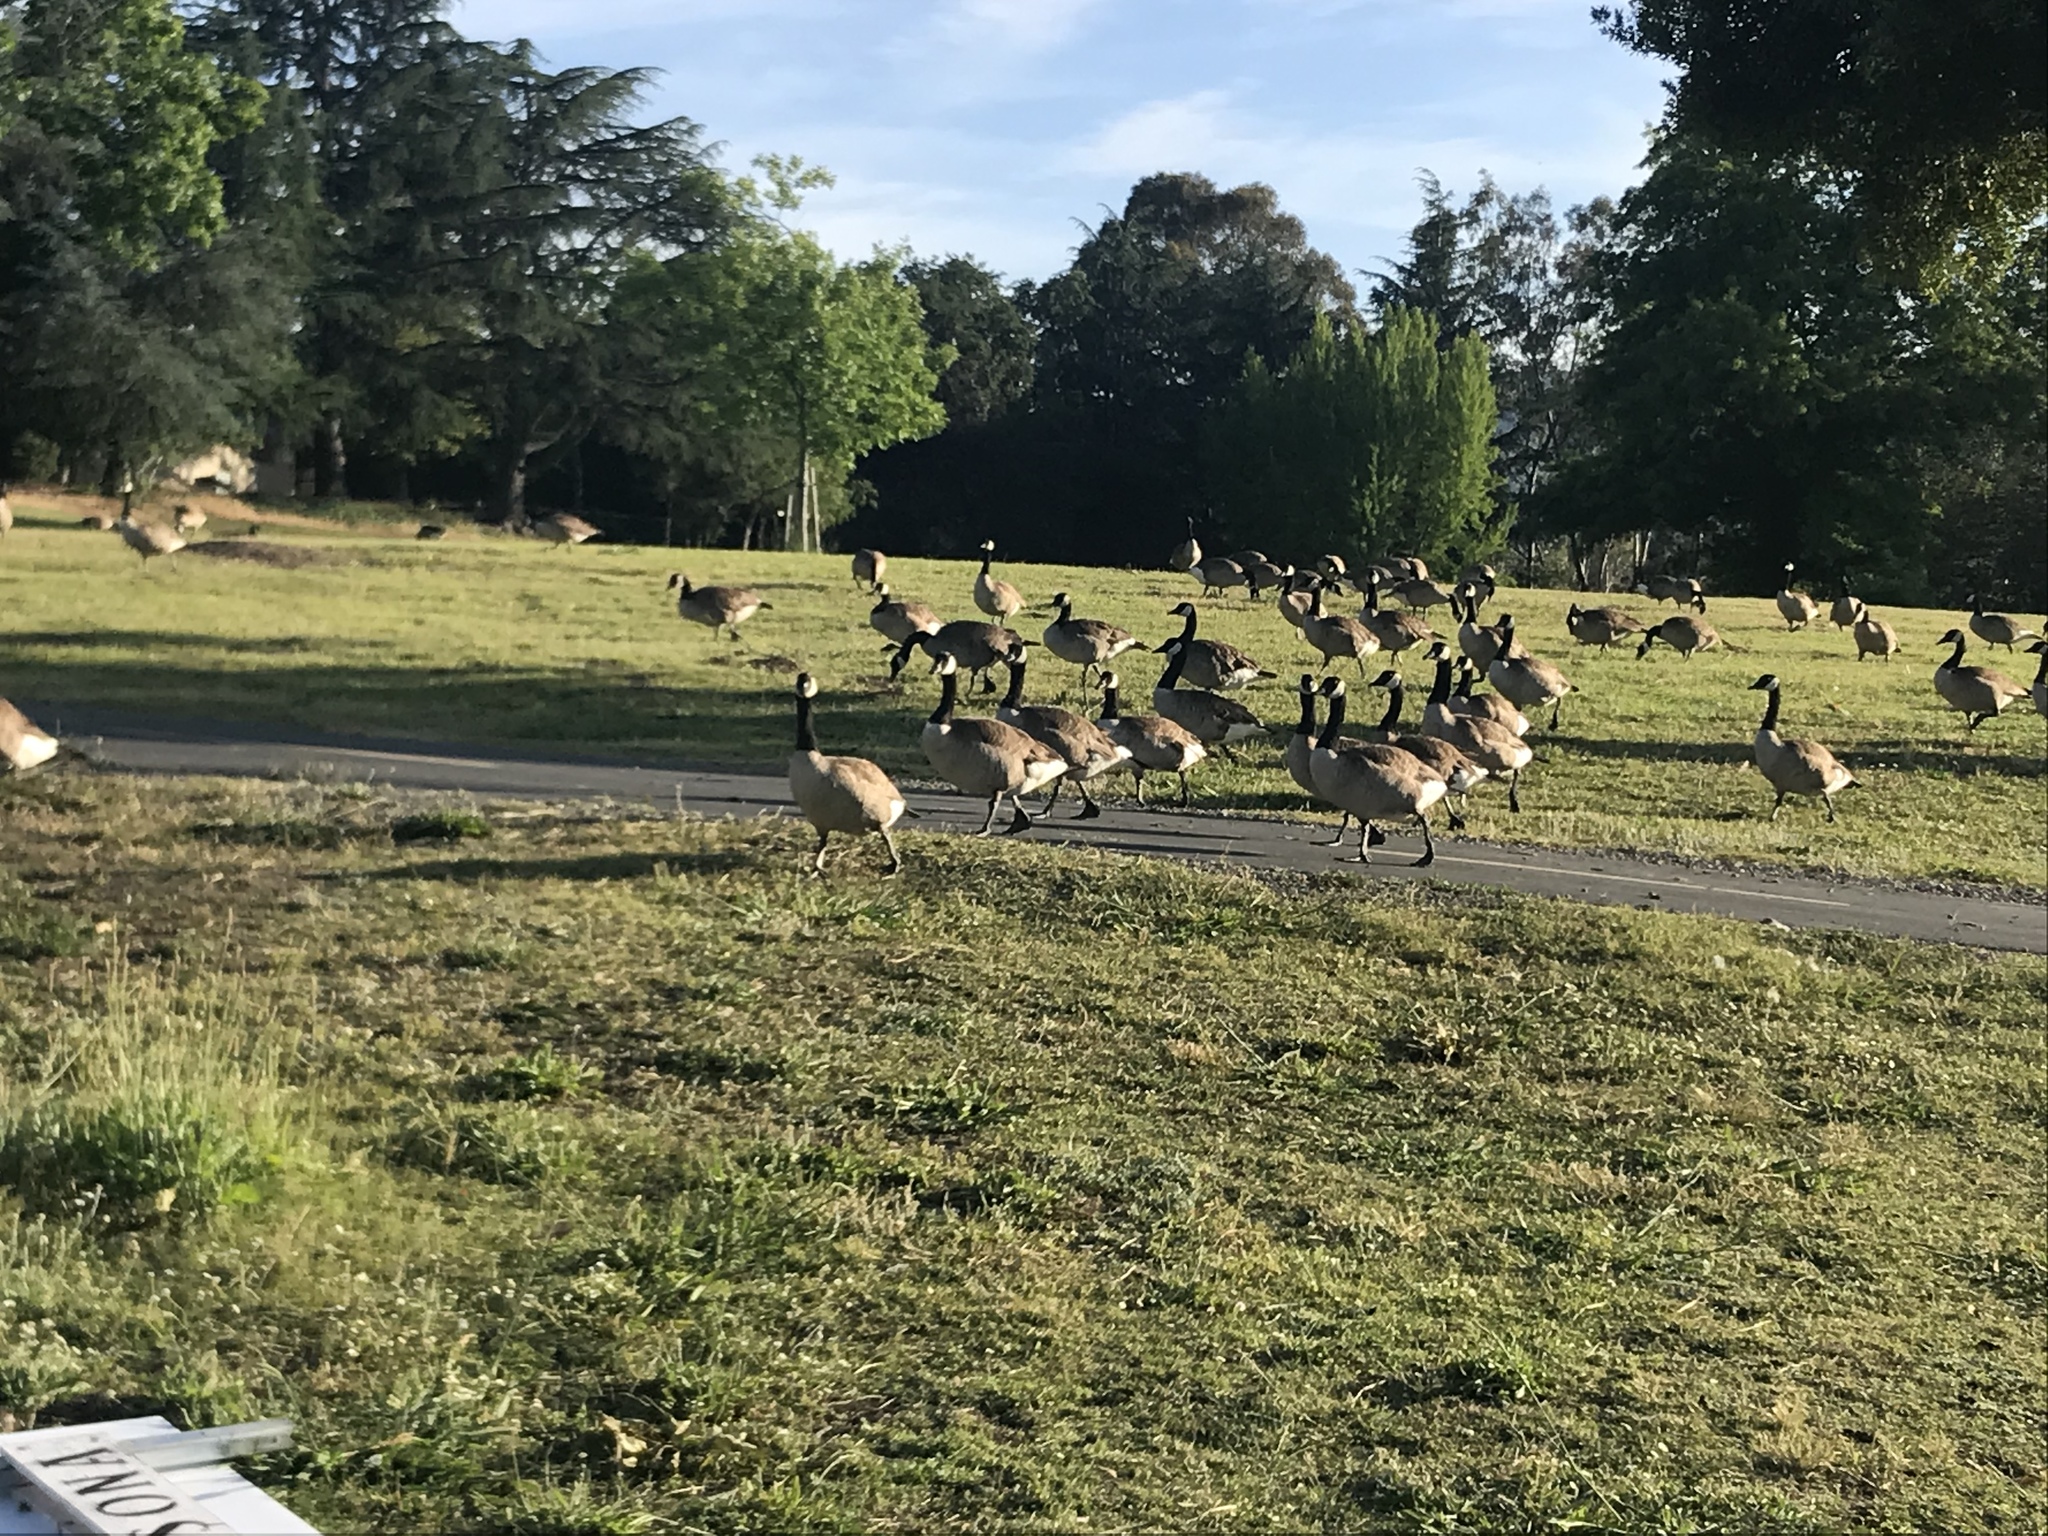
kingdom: Animalia
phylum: Chordata
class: Aves
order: Anseriformes
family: Anatidae
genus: Branta
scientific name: Branta canadensis
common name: Canada goose
